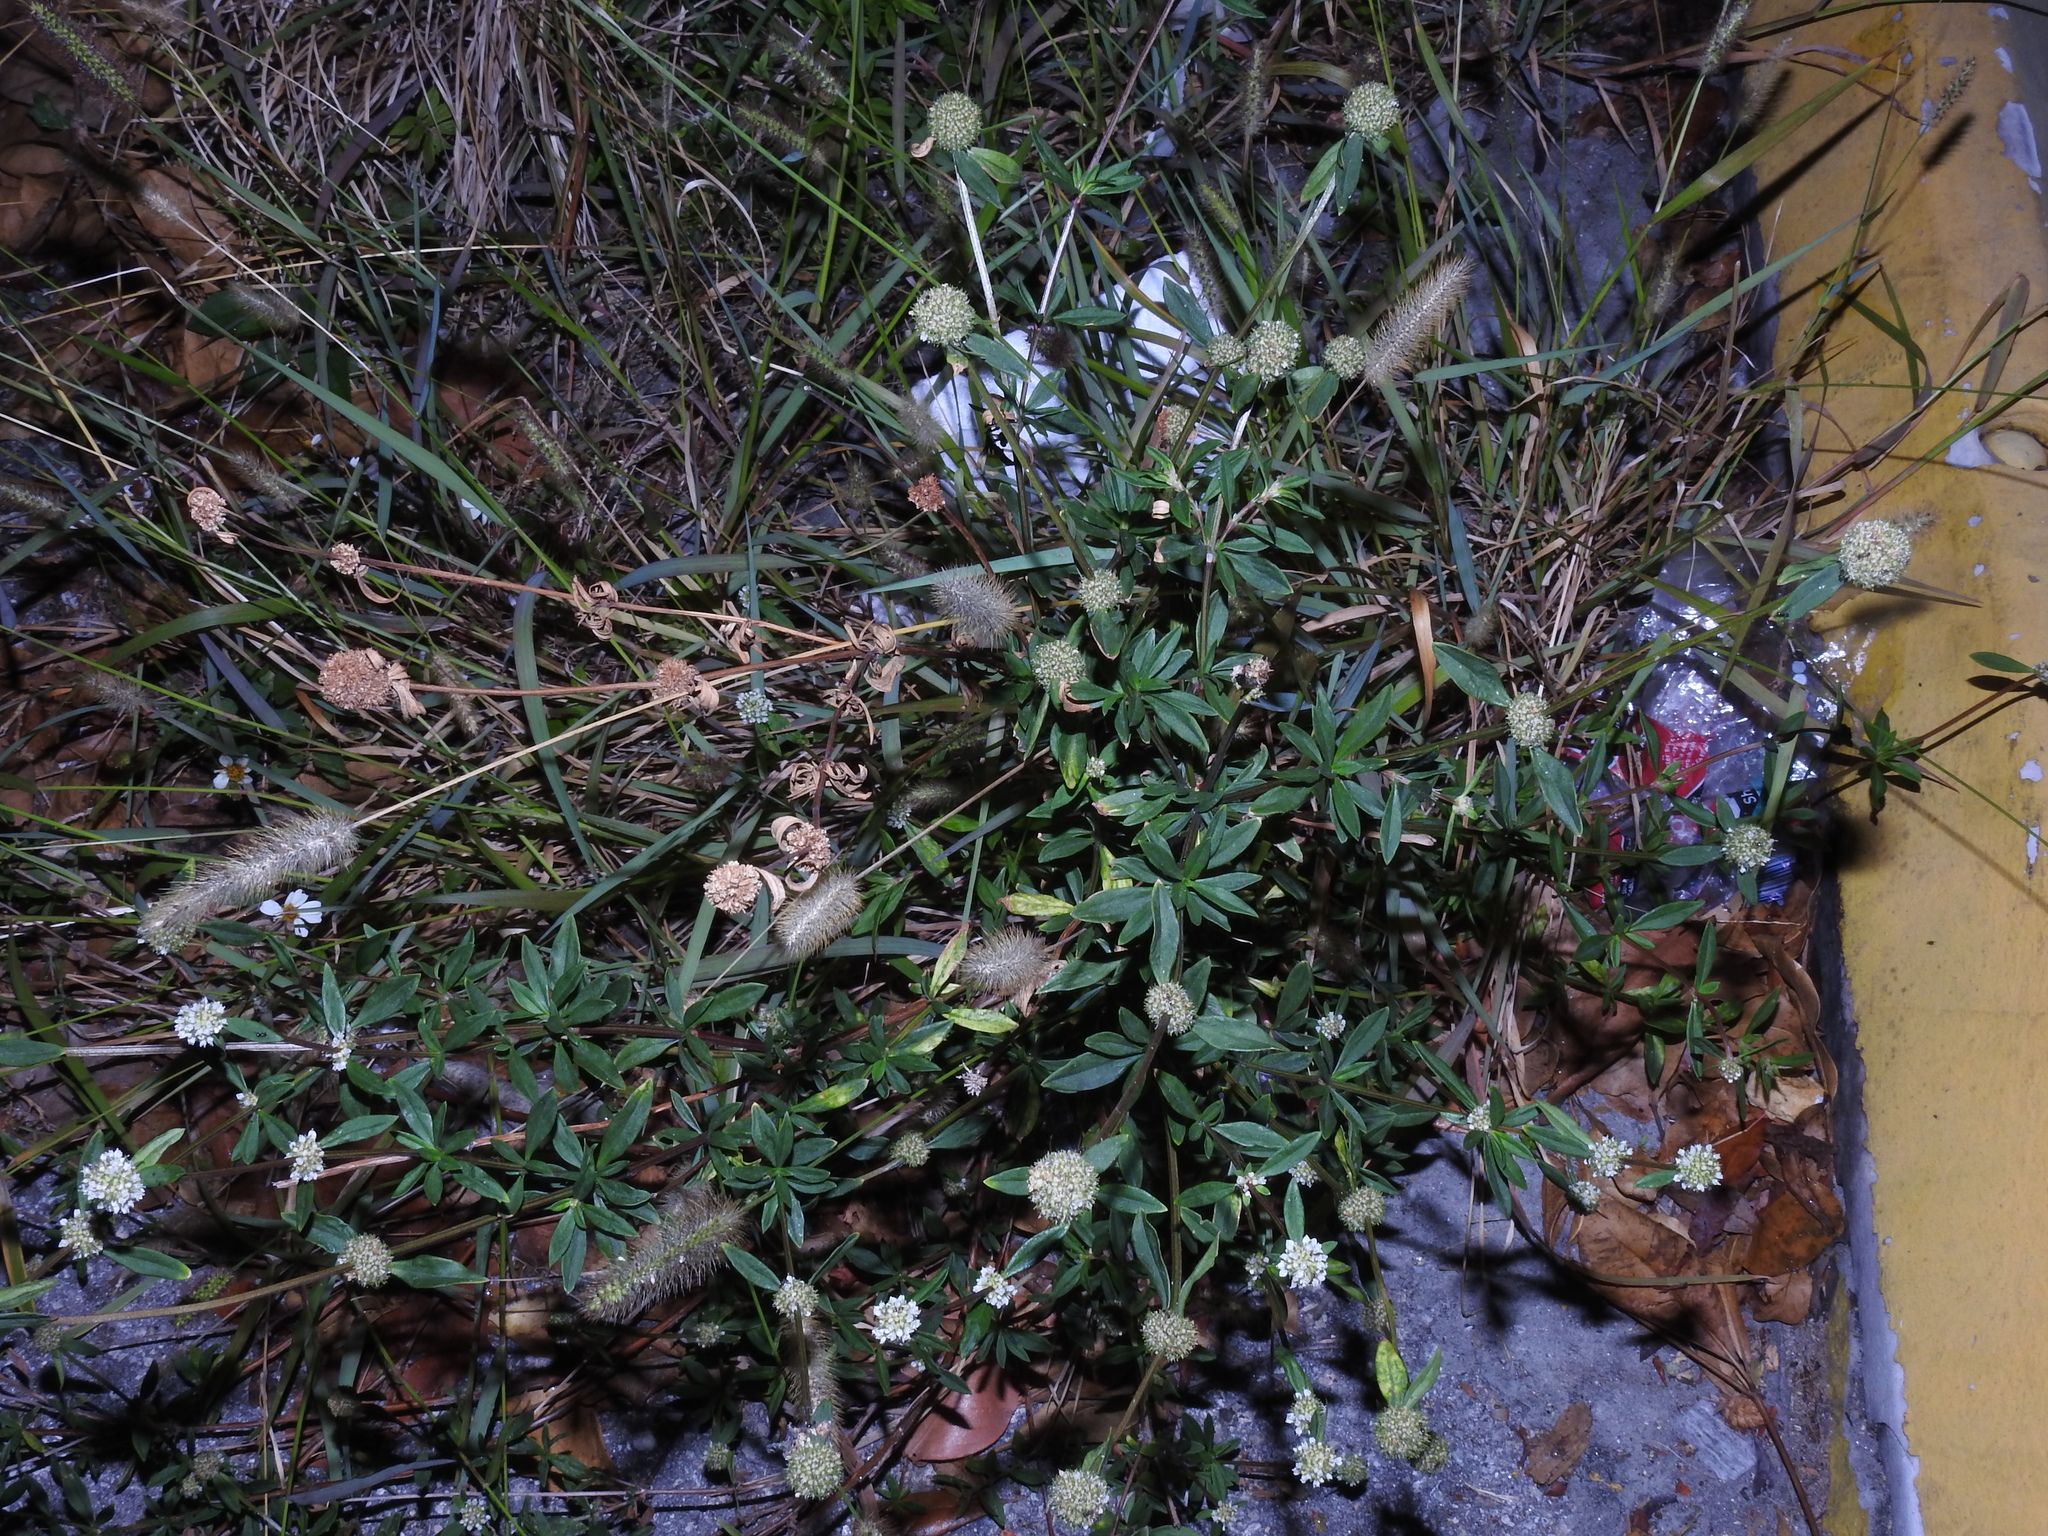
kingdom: Plantae
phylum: Tracheophyta
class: Magnoliopsida
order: Gentianales
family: Rubiaceae
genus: Spermacoce
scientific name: Spermacoce verticillata
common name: Shrubby false buttonweed
